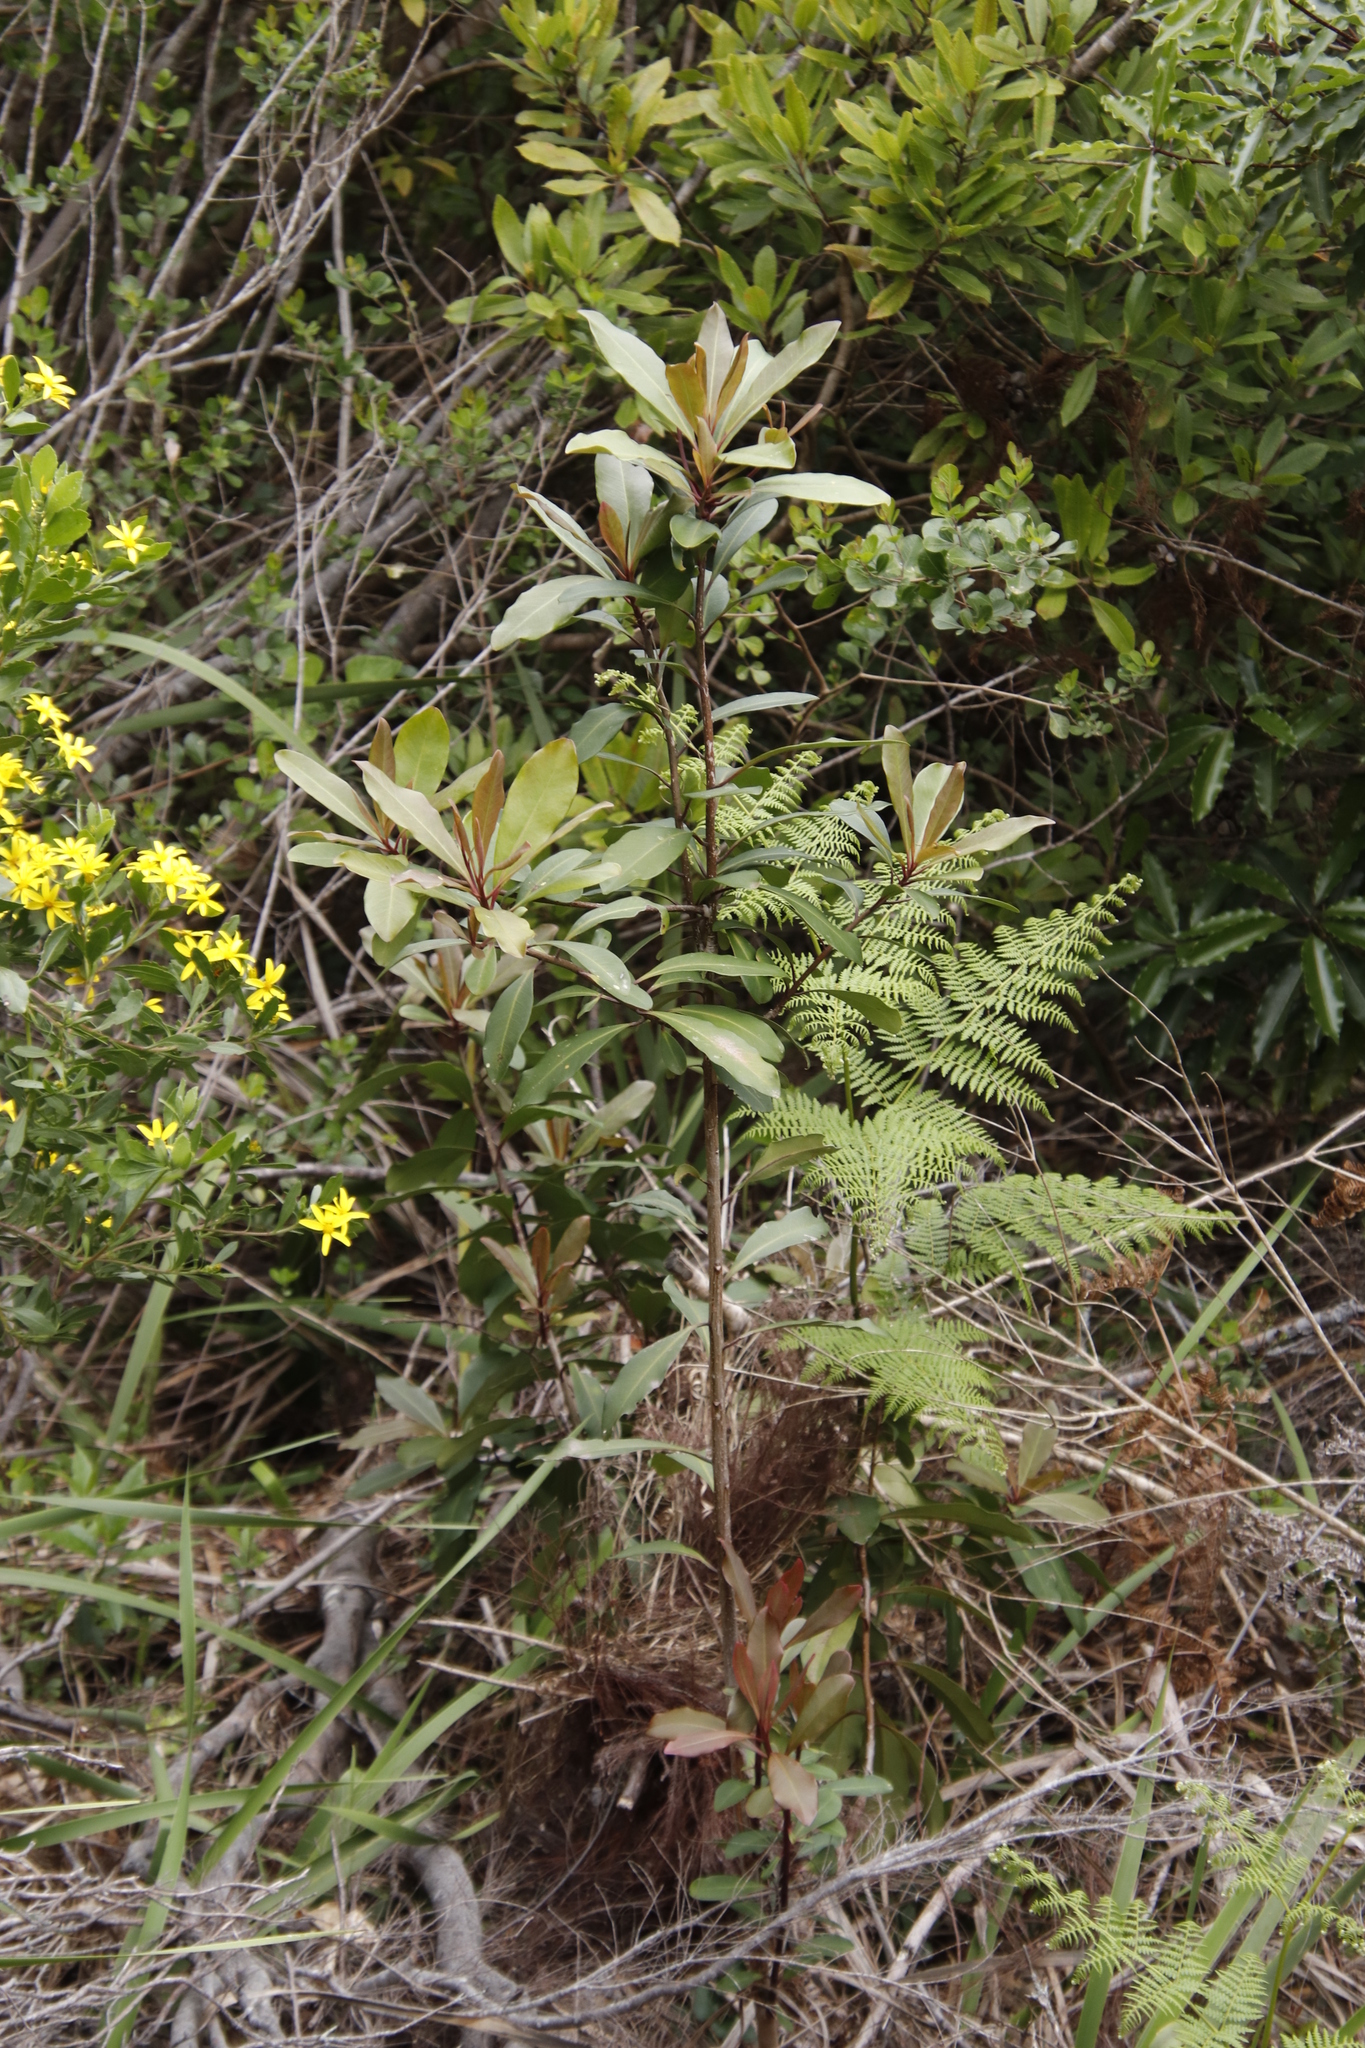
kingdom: Plantae
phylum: Tracheophyta
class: Magnoliopsida
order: Ericales
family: Primulaceae
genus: Myrsine
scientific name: Myrsine melanophloeos
